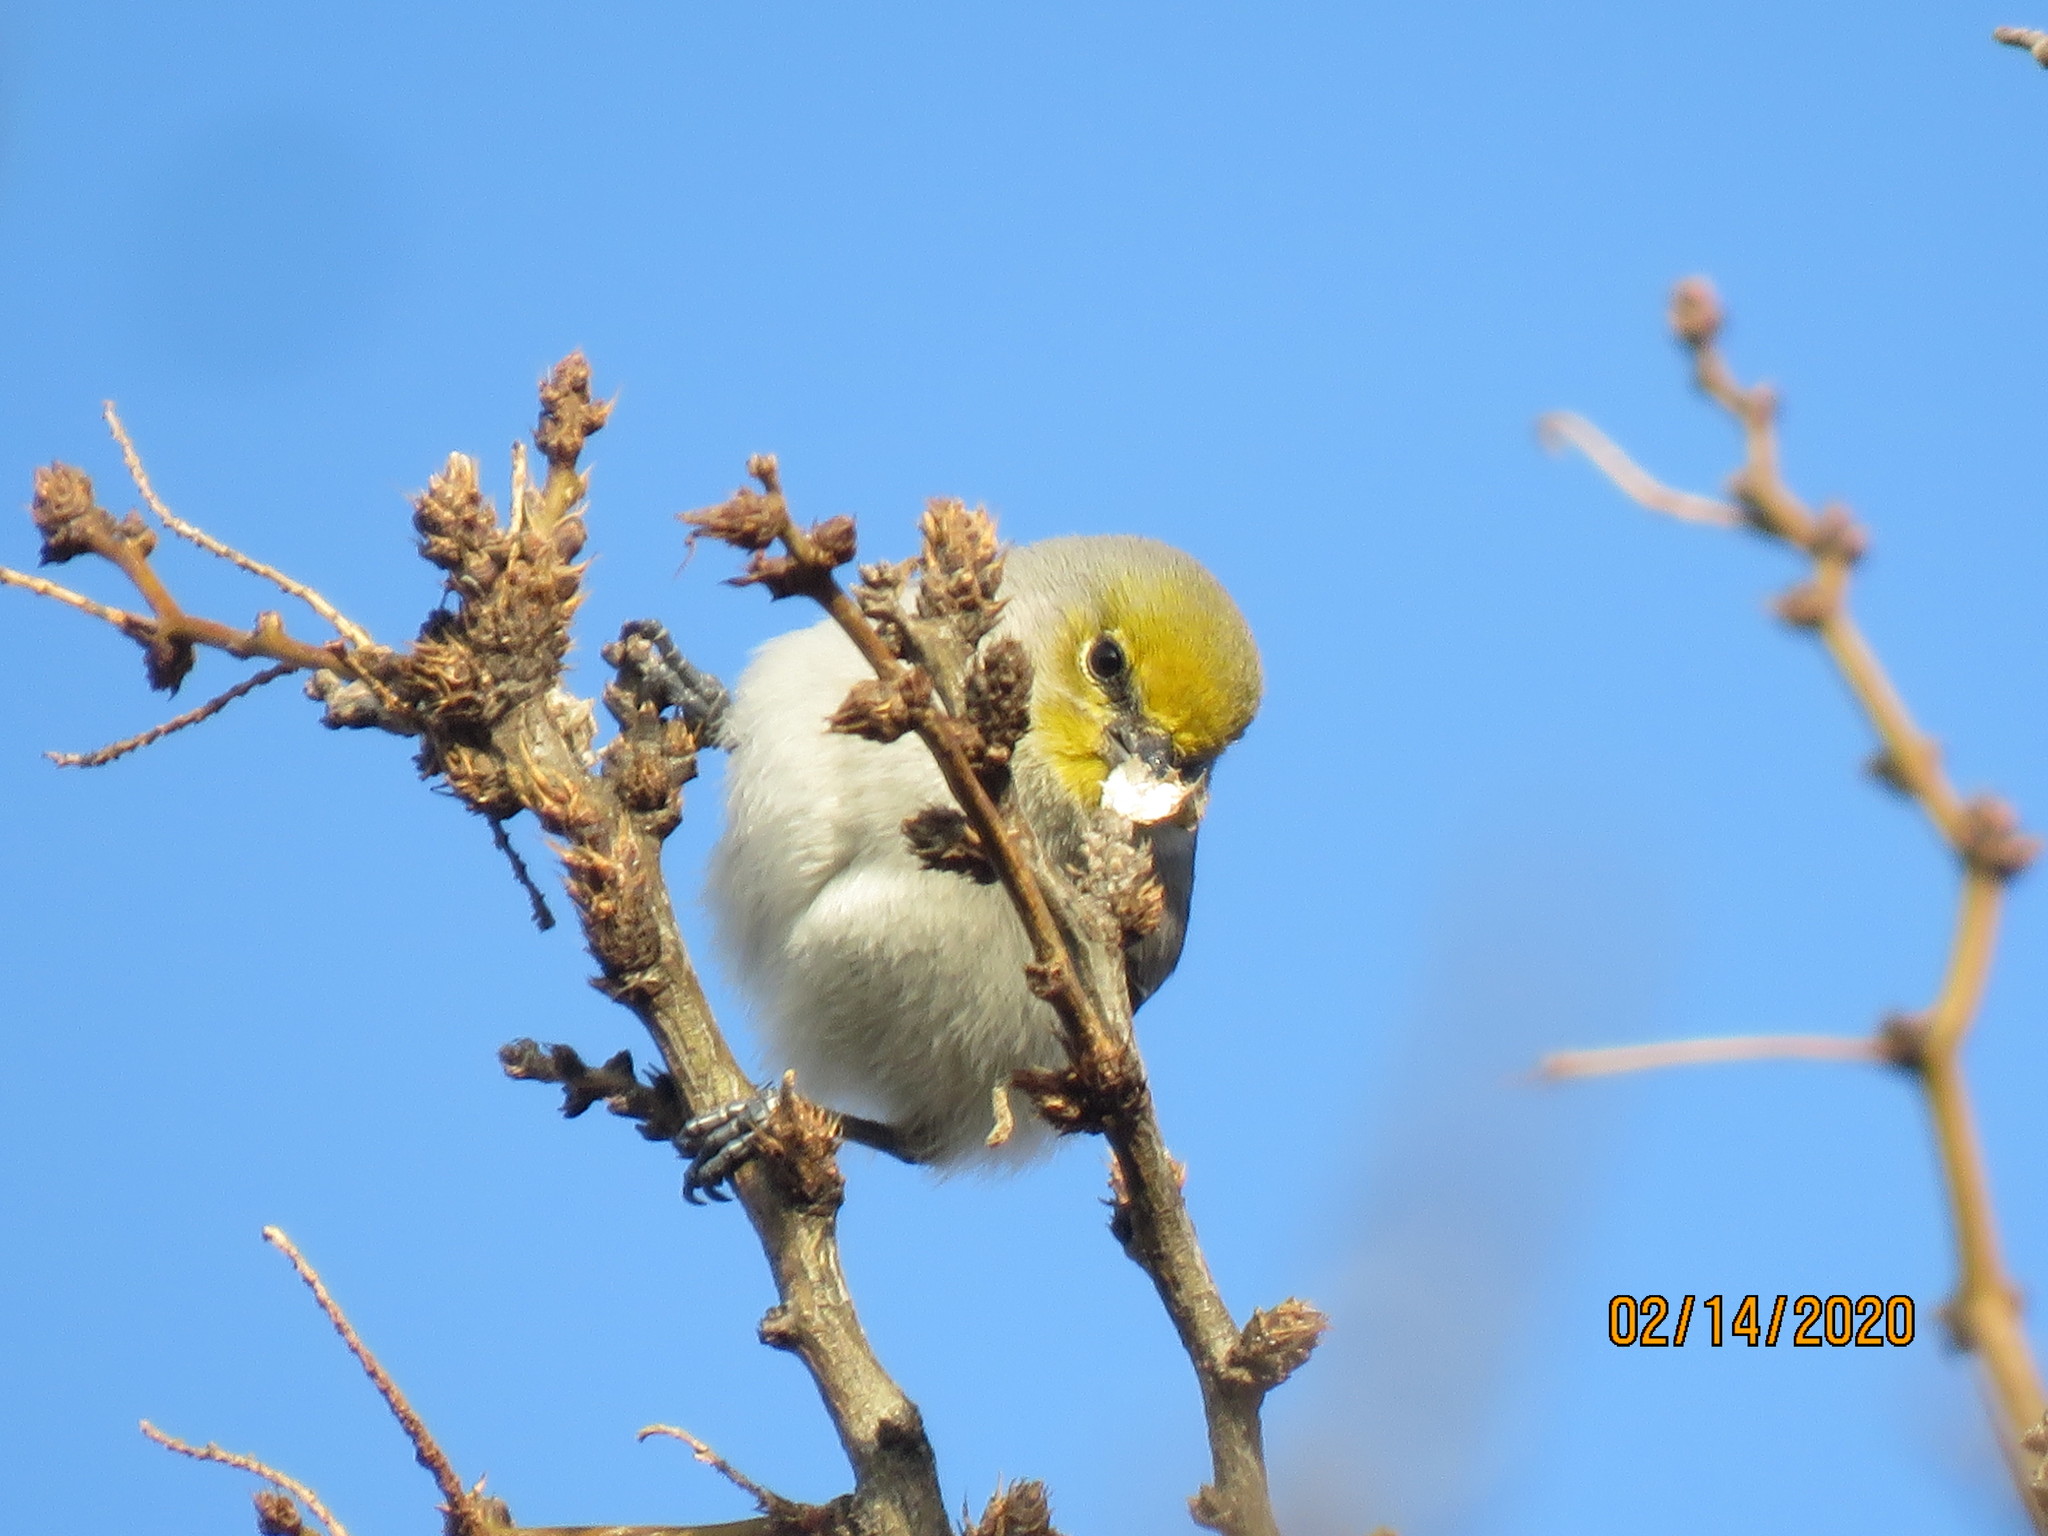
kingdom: Animalia
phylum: Chordata
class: Aves
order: Passeriformes
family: Remizidae
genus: Auriparus
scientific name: Auriparus flaviceps
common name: Verdin
